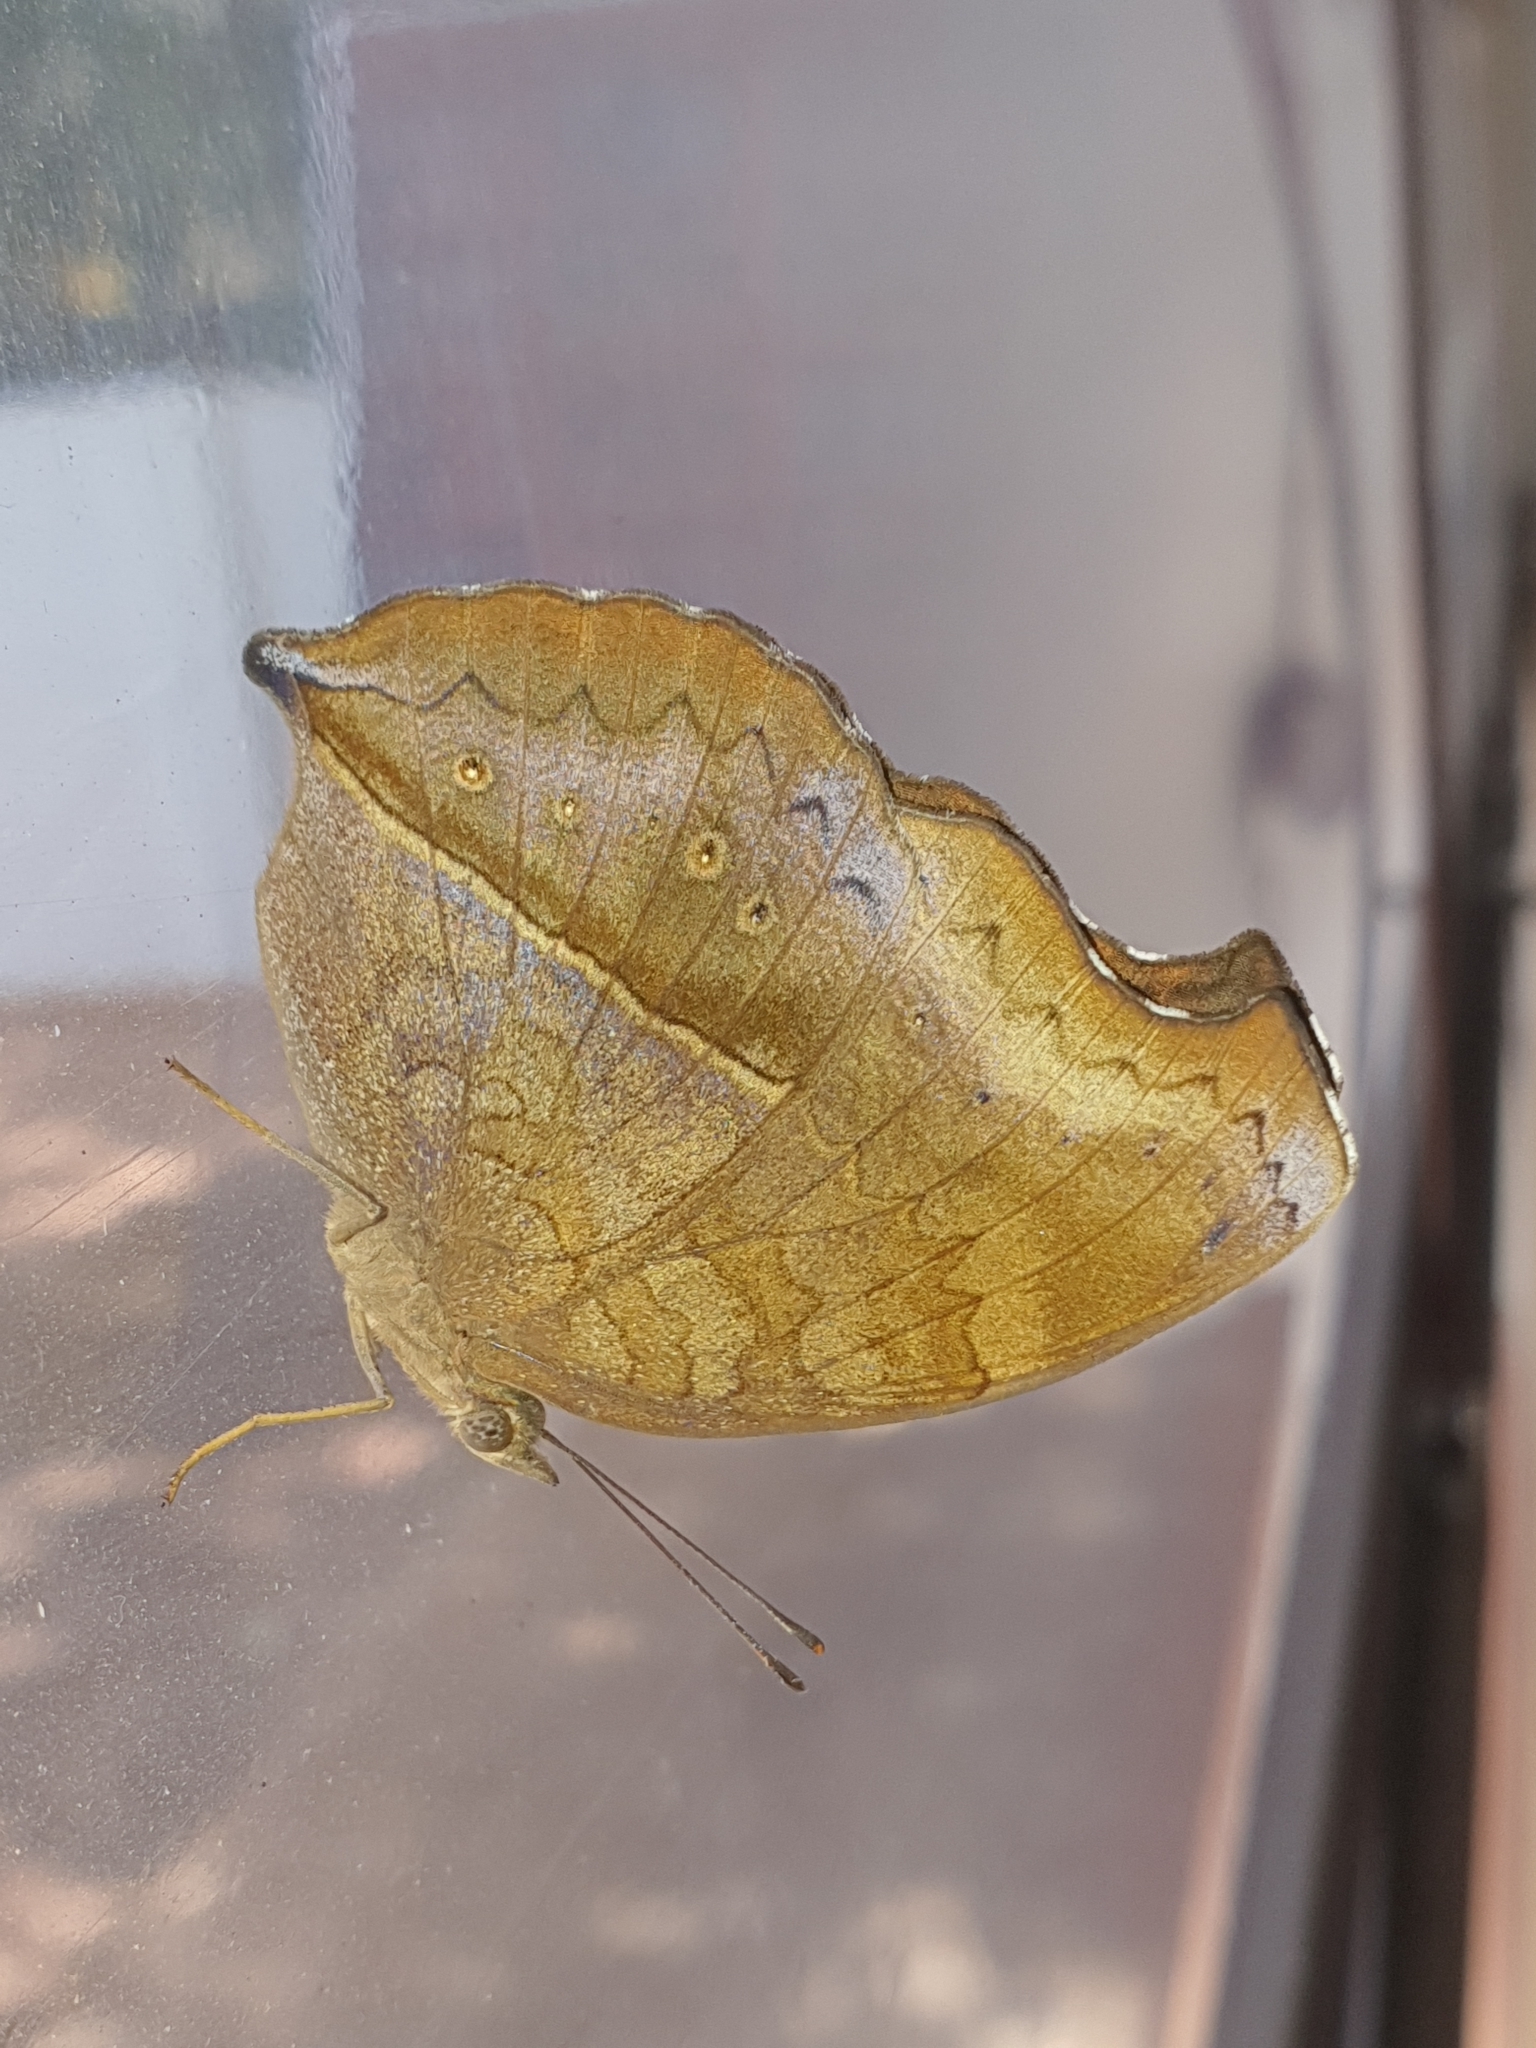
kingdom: Animalia
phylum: Arthropoda
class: Insecta
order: Lepidoptera
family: Nymphalidae
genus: Junonia
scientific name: Junonia iphita
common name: Chocolate pansy
